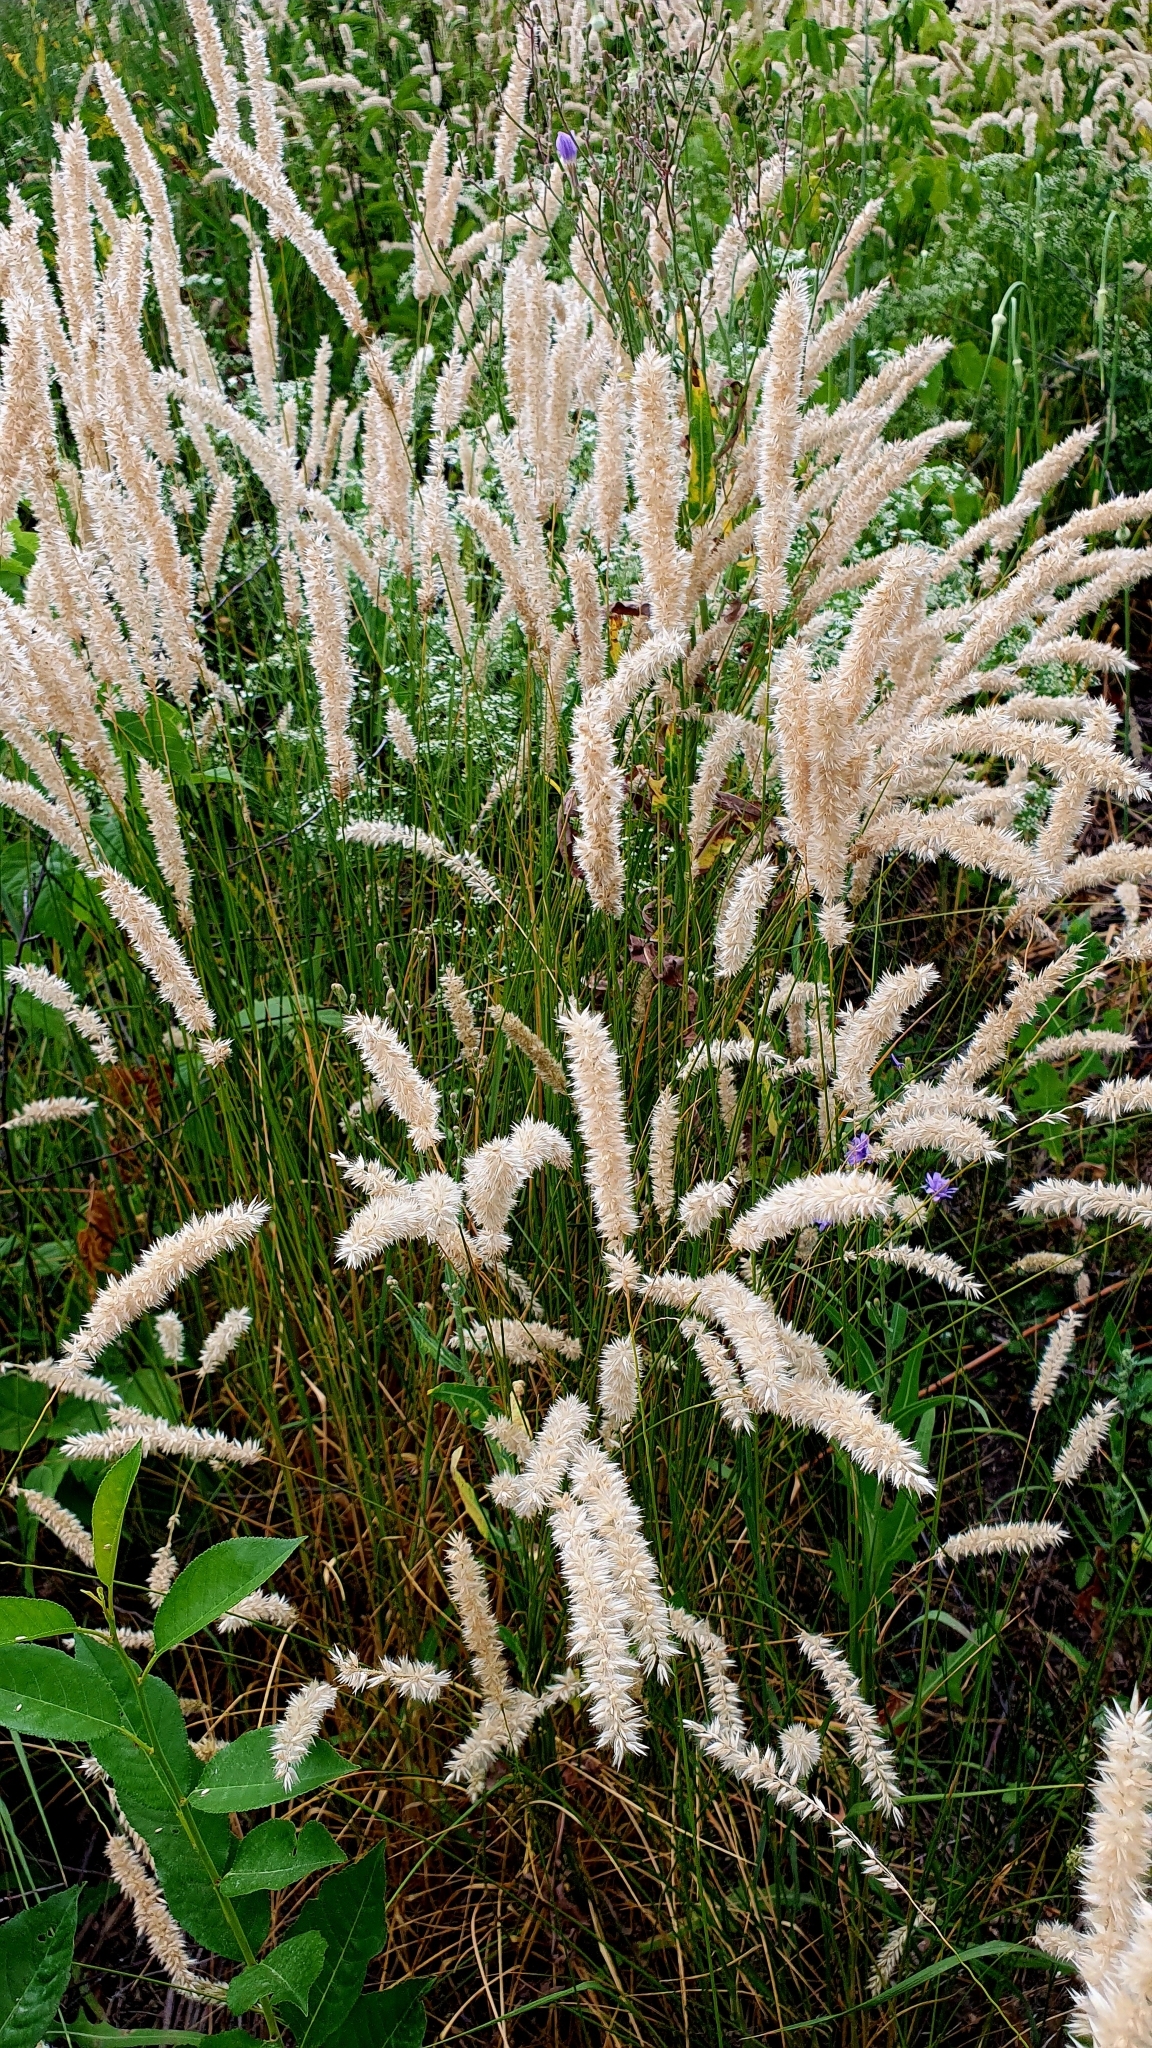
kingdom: Plantae
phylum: Tracheophyta
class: Liliopsida
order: Poales
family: Poaceae
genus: Melica
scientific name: Melica transsilvanica
